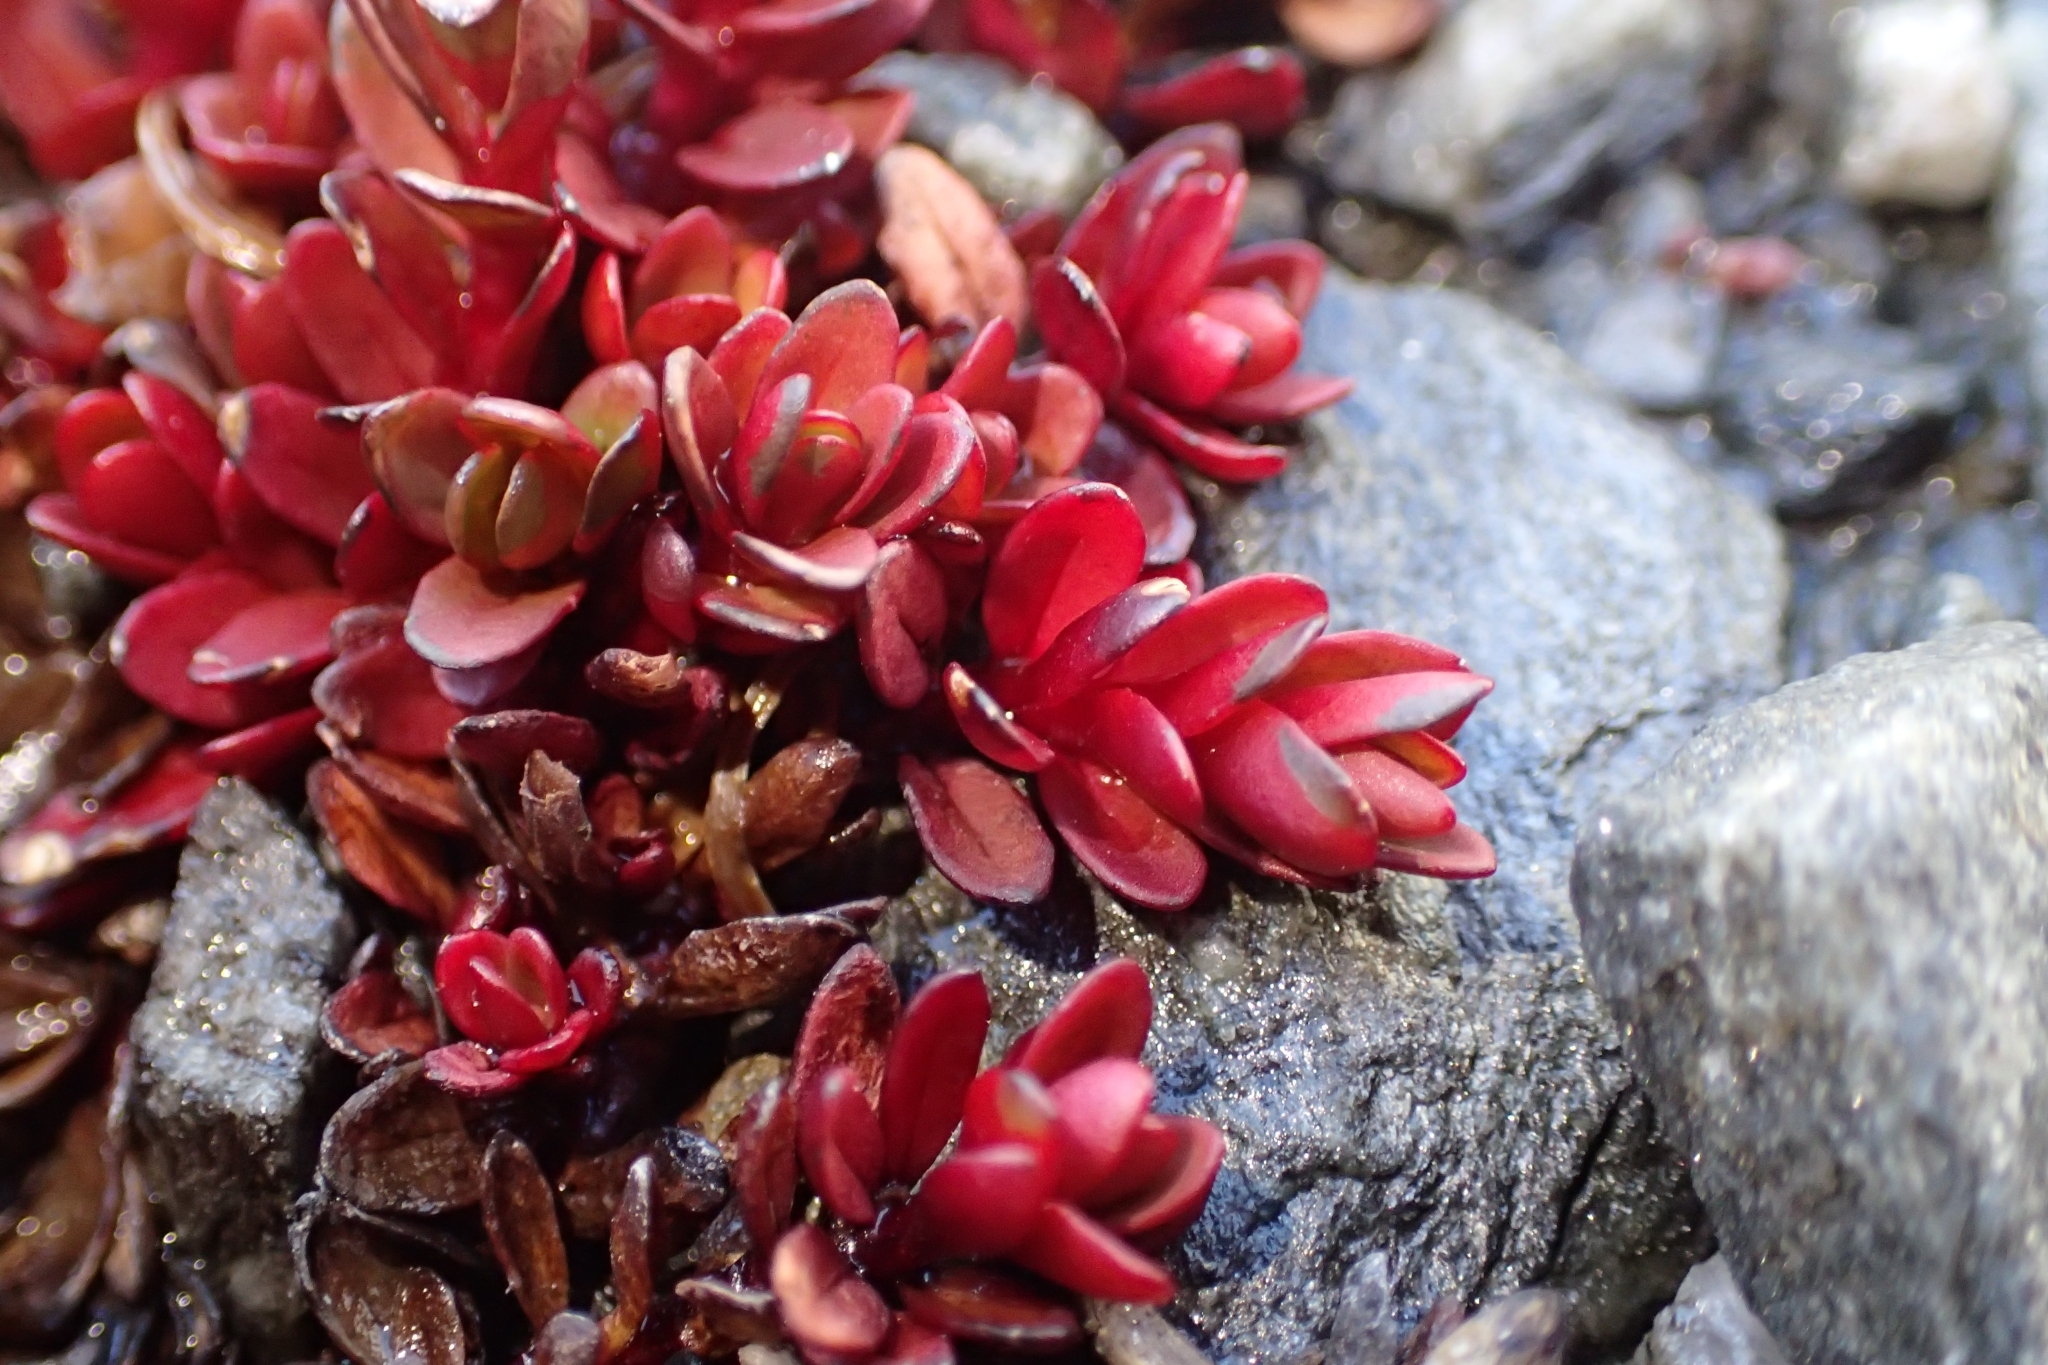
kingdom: Plantae
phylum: Tracheophyta
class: Magnoliopsida
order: Myrtales
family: Onagraceae
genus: Epilobium
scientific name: Epilobium tasmanicum
